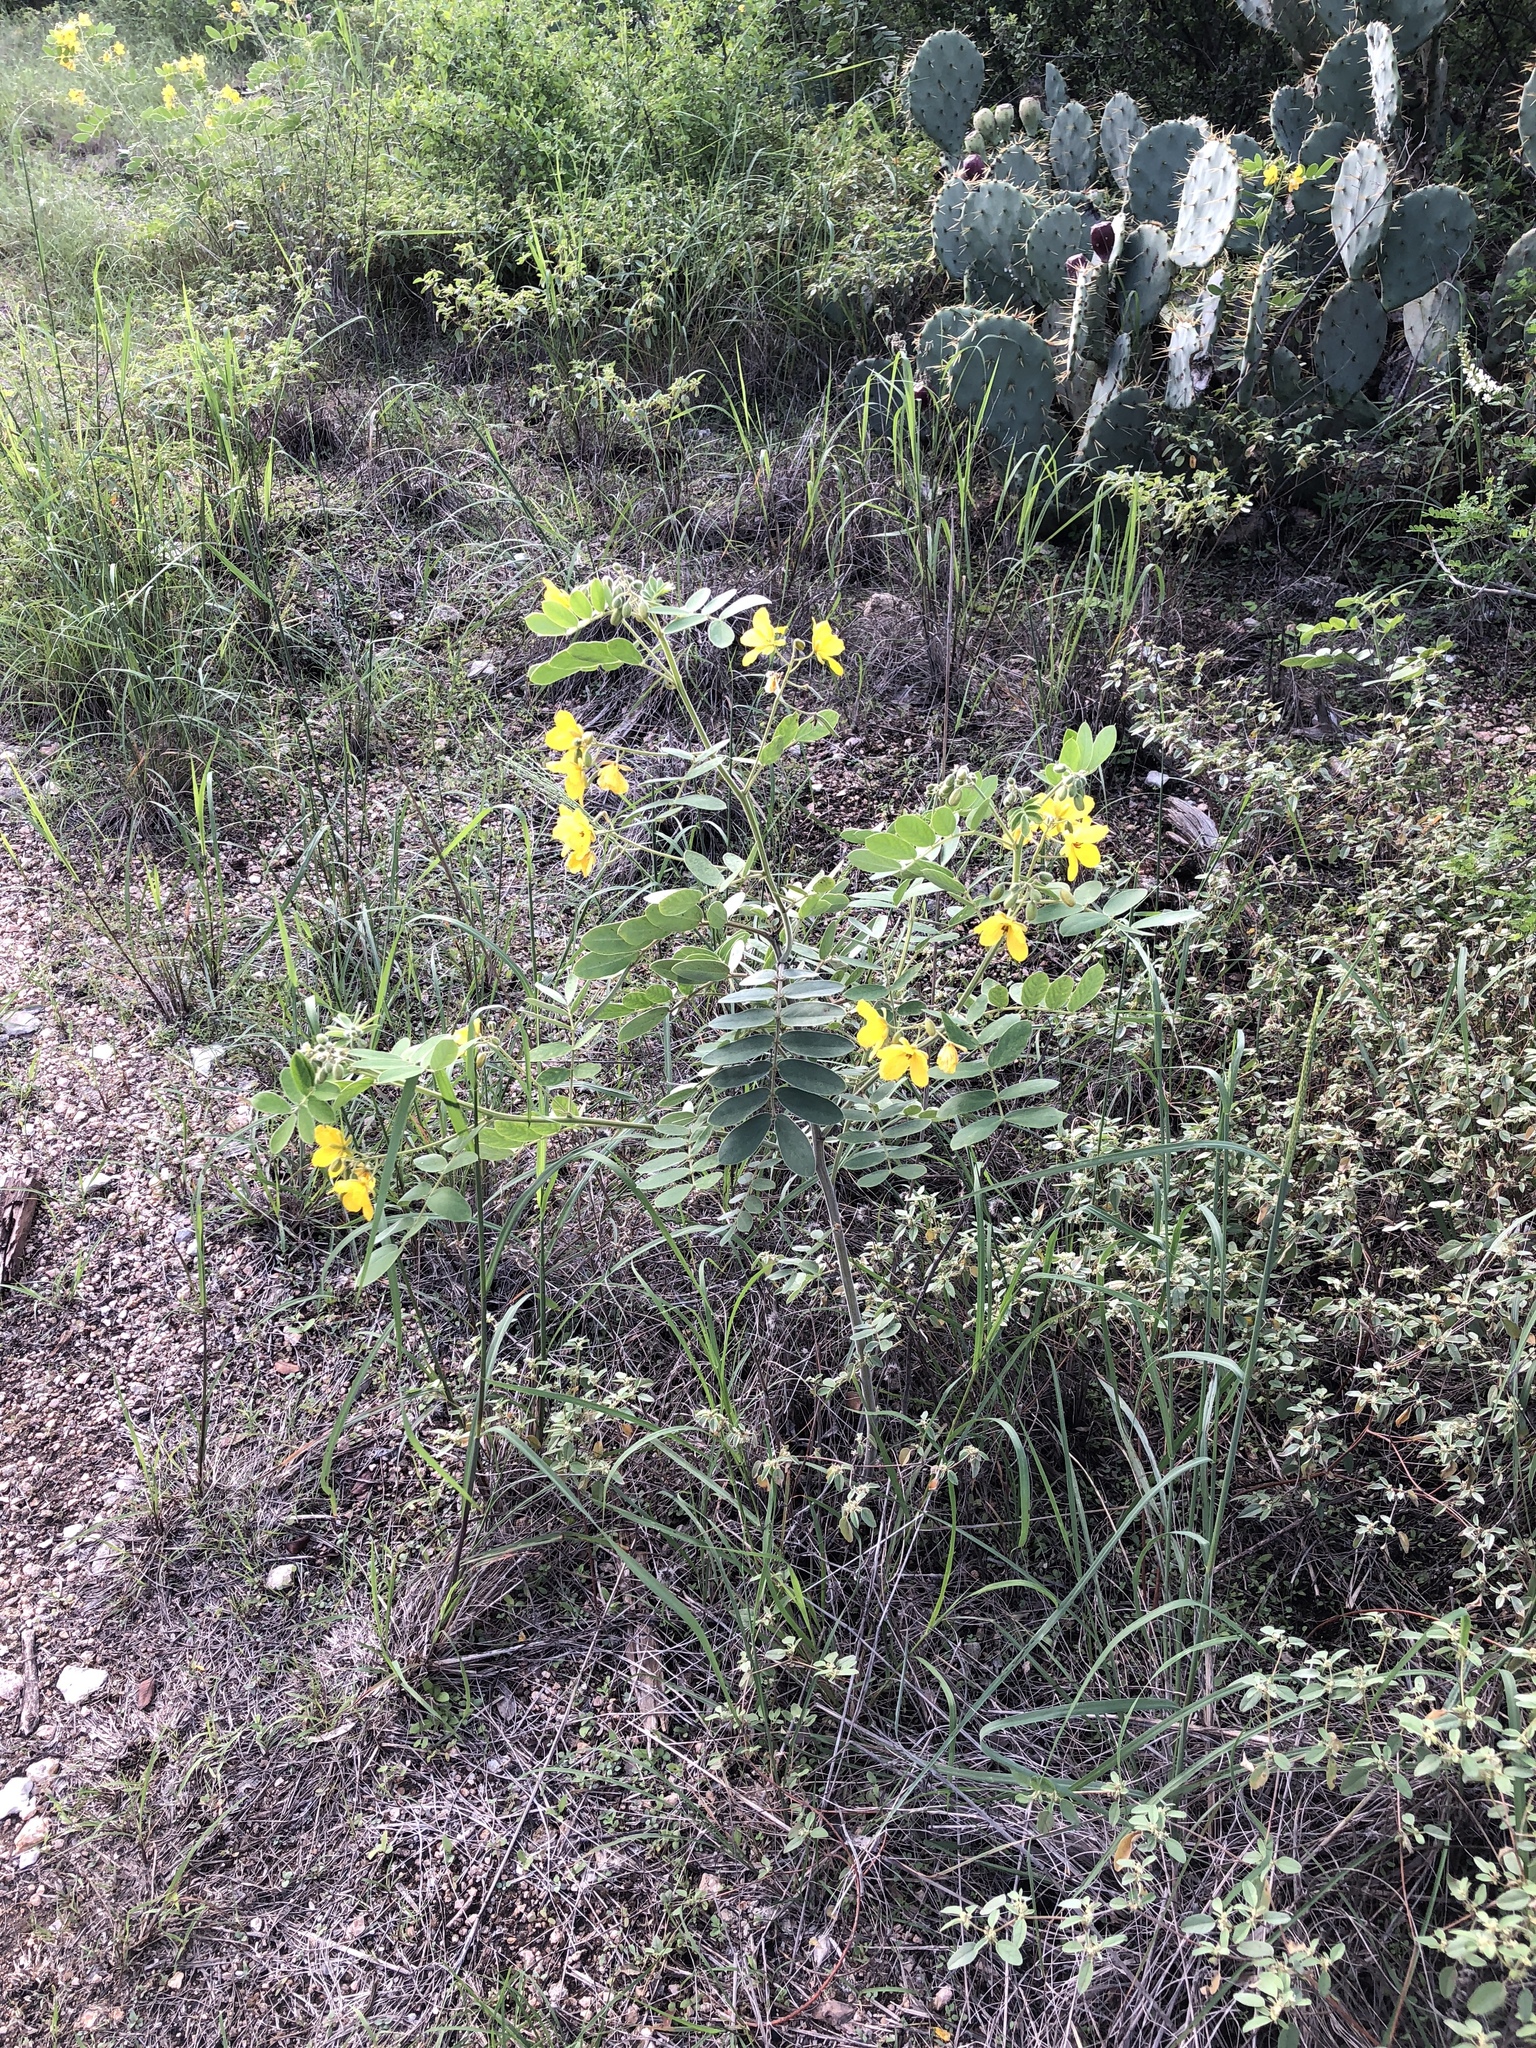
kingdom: Plantae
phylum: Tracheophyta
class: Magnoliopsida
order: Fabales
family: Fabaceae
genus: Senna
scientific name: Senna lindheimeriana
